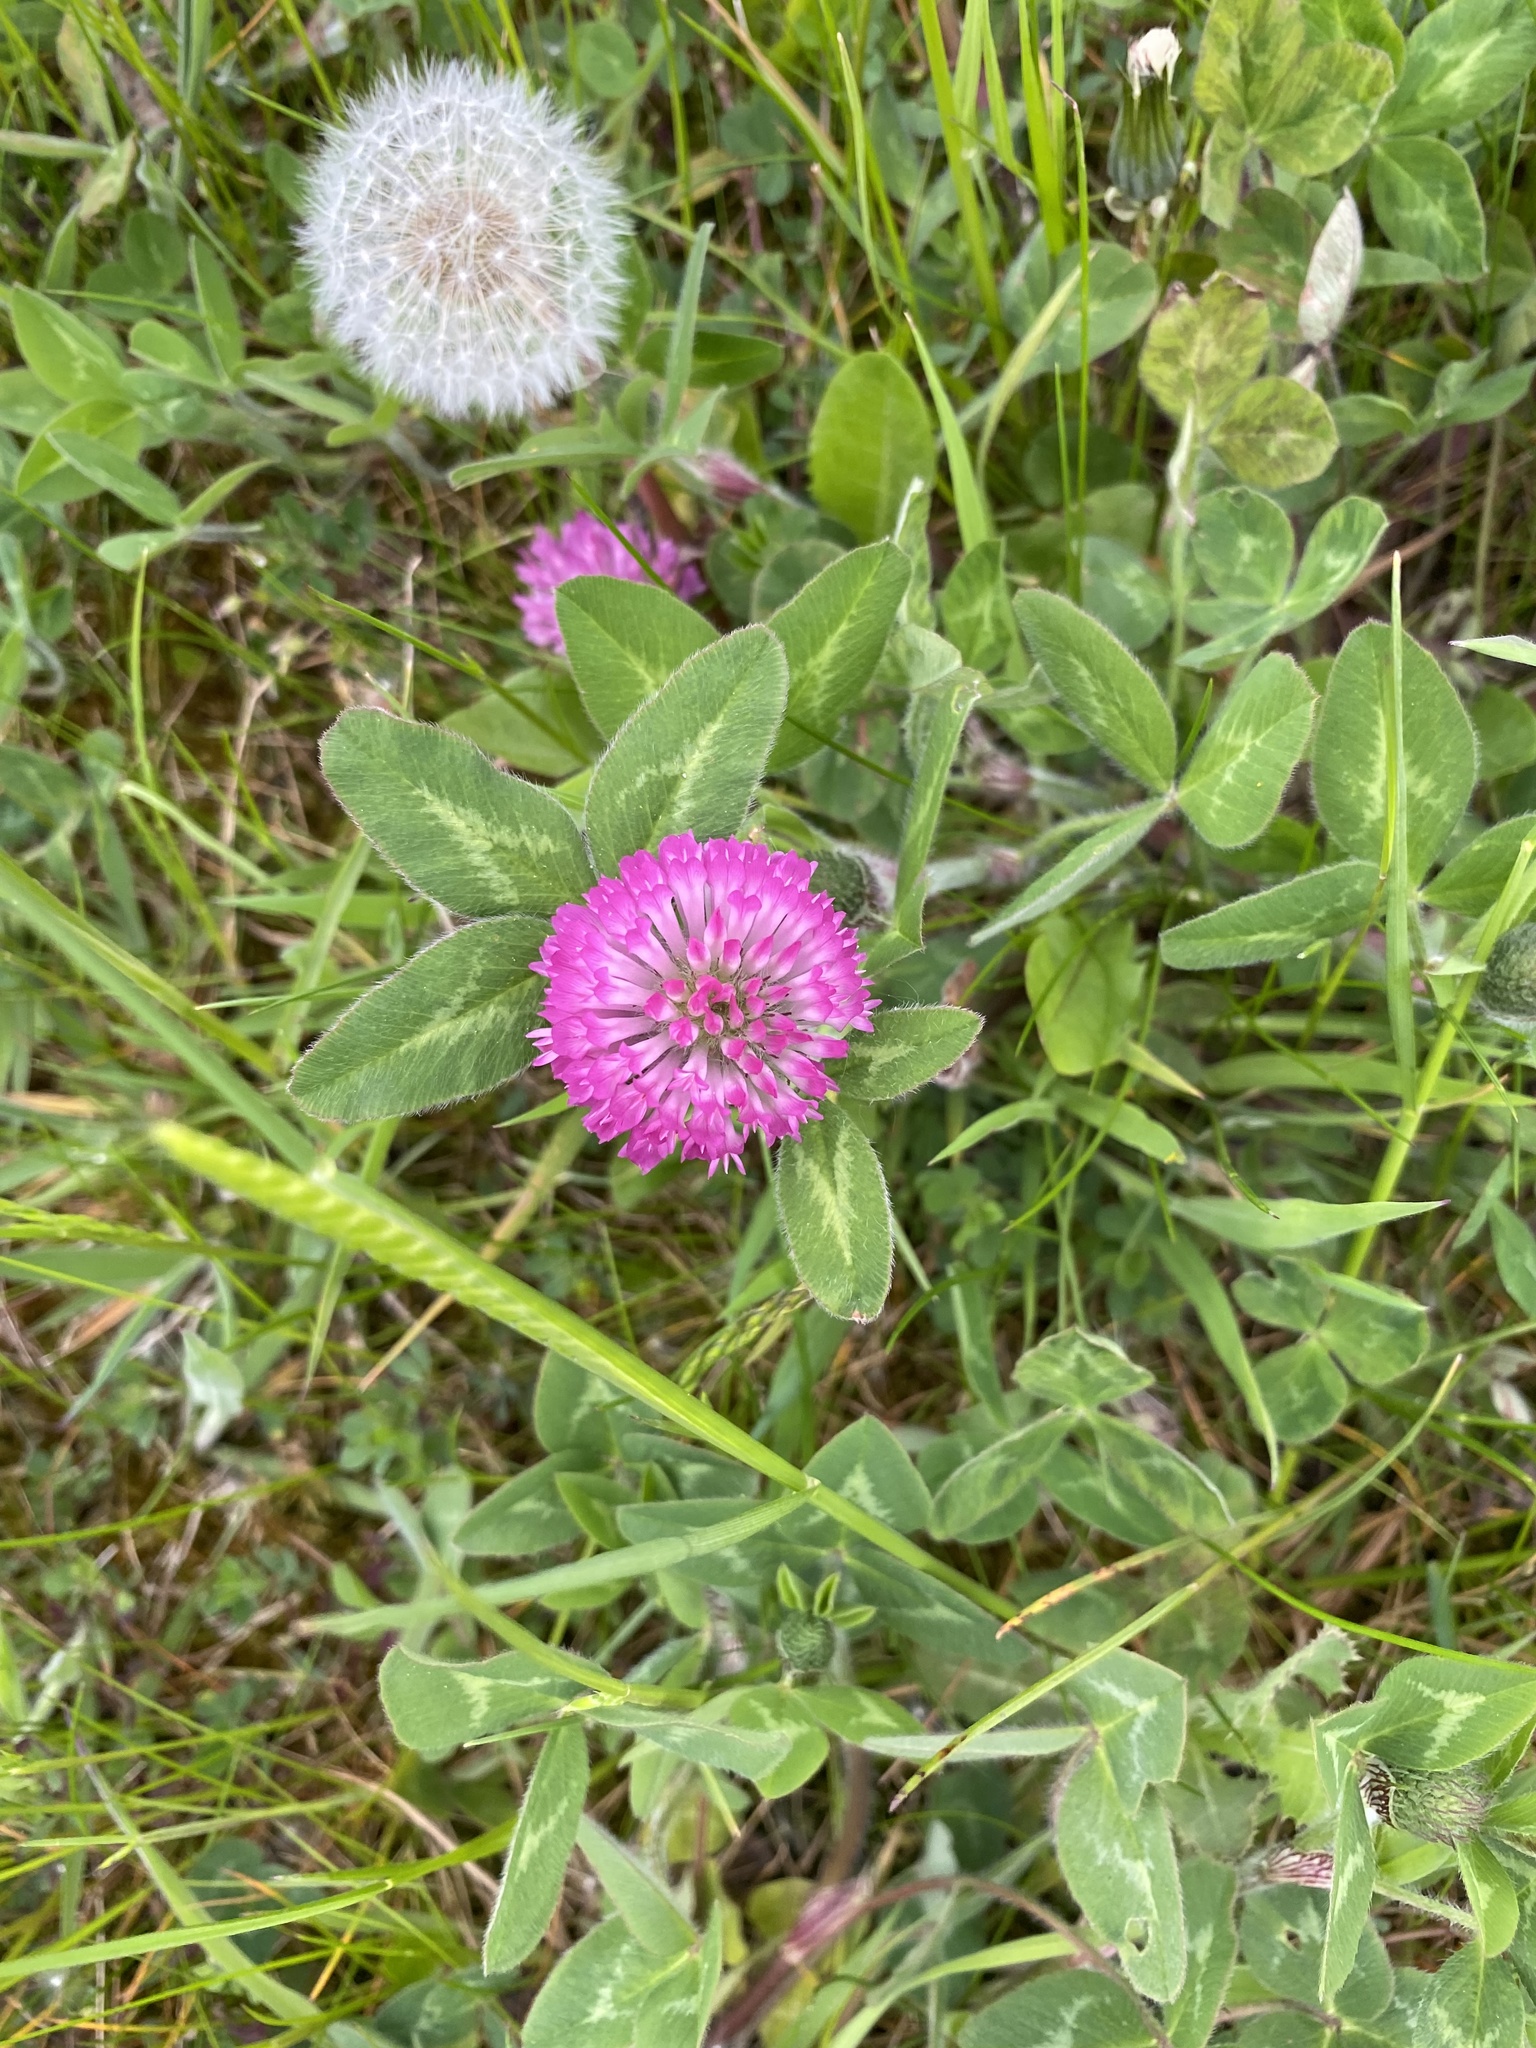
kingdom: Plantae
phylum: Tracheophyta
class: Magnoliopsida
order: Fabales
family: Fabaceae
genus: Trifolium
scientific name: Trifolium pratense
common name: Red clover
